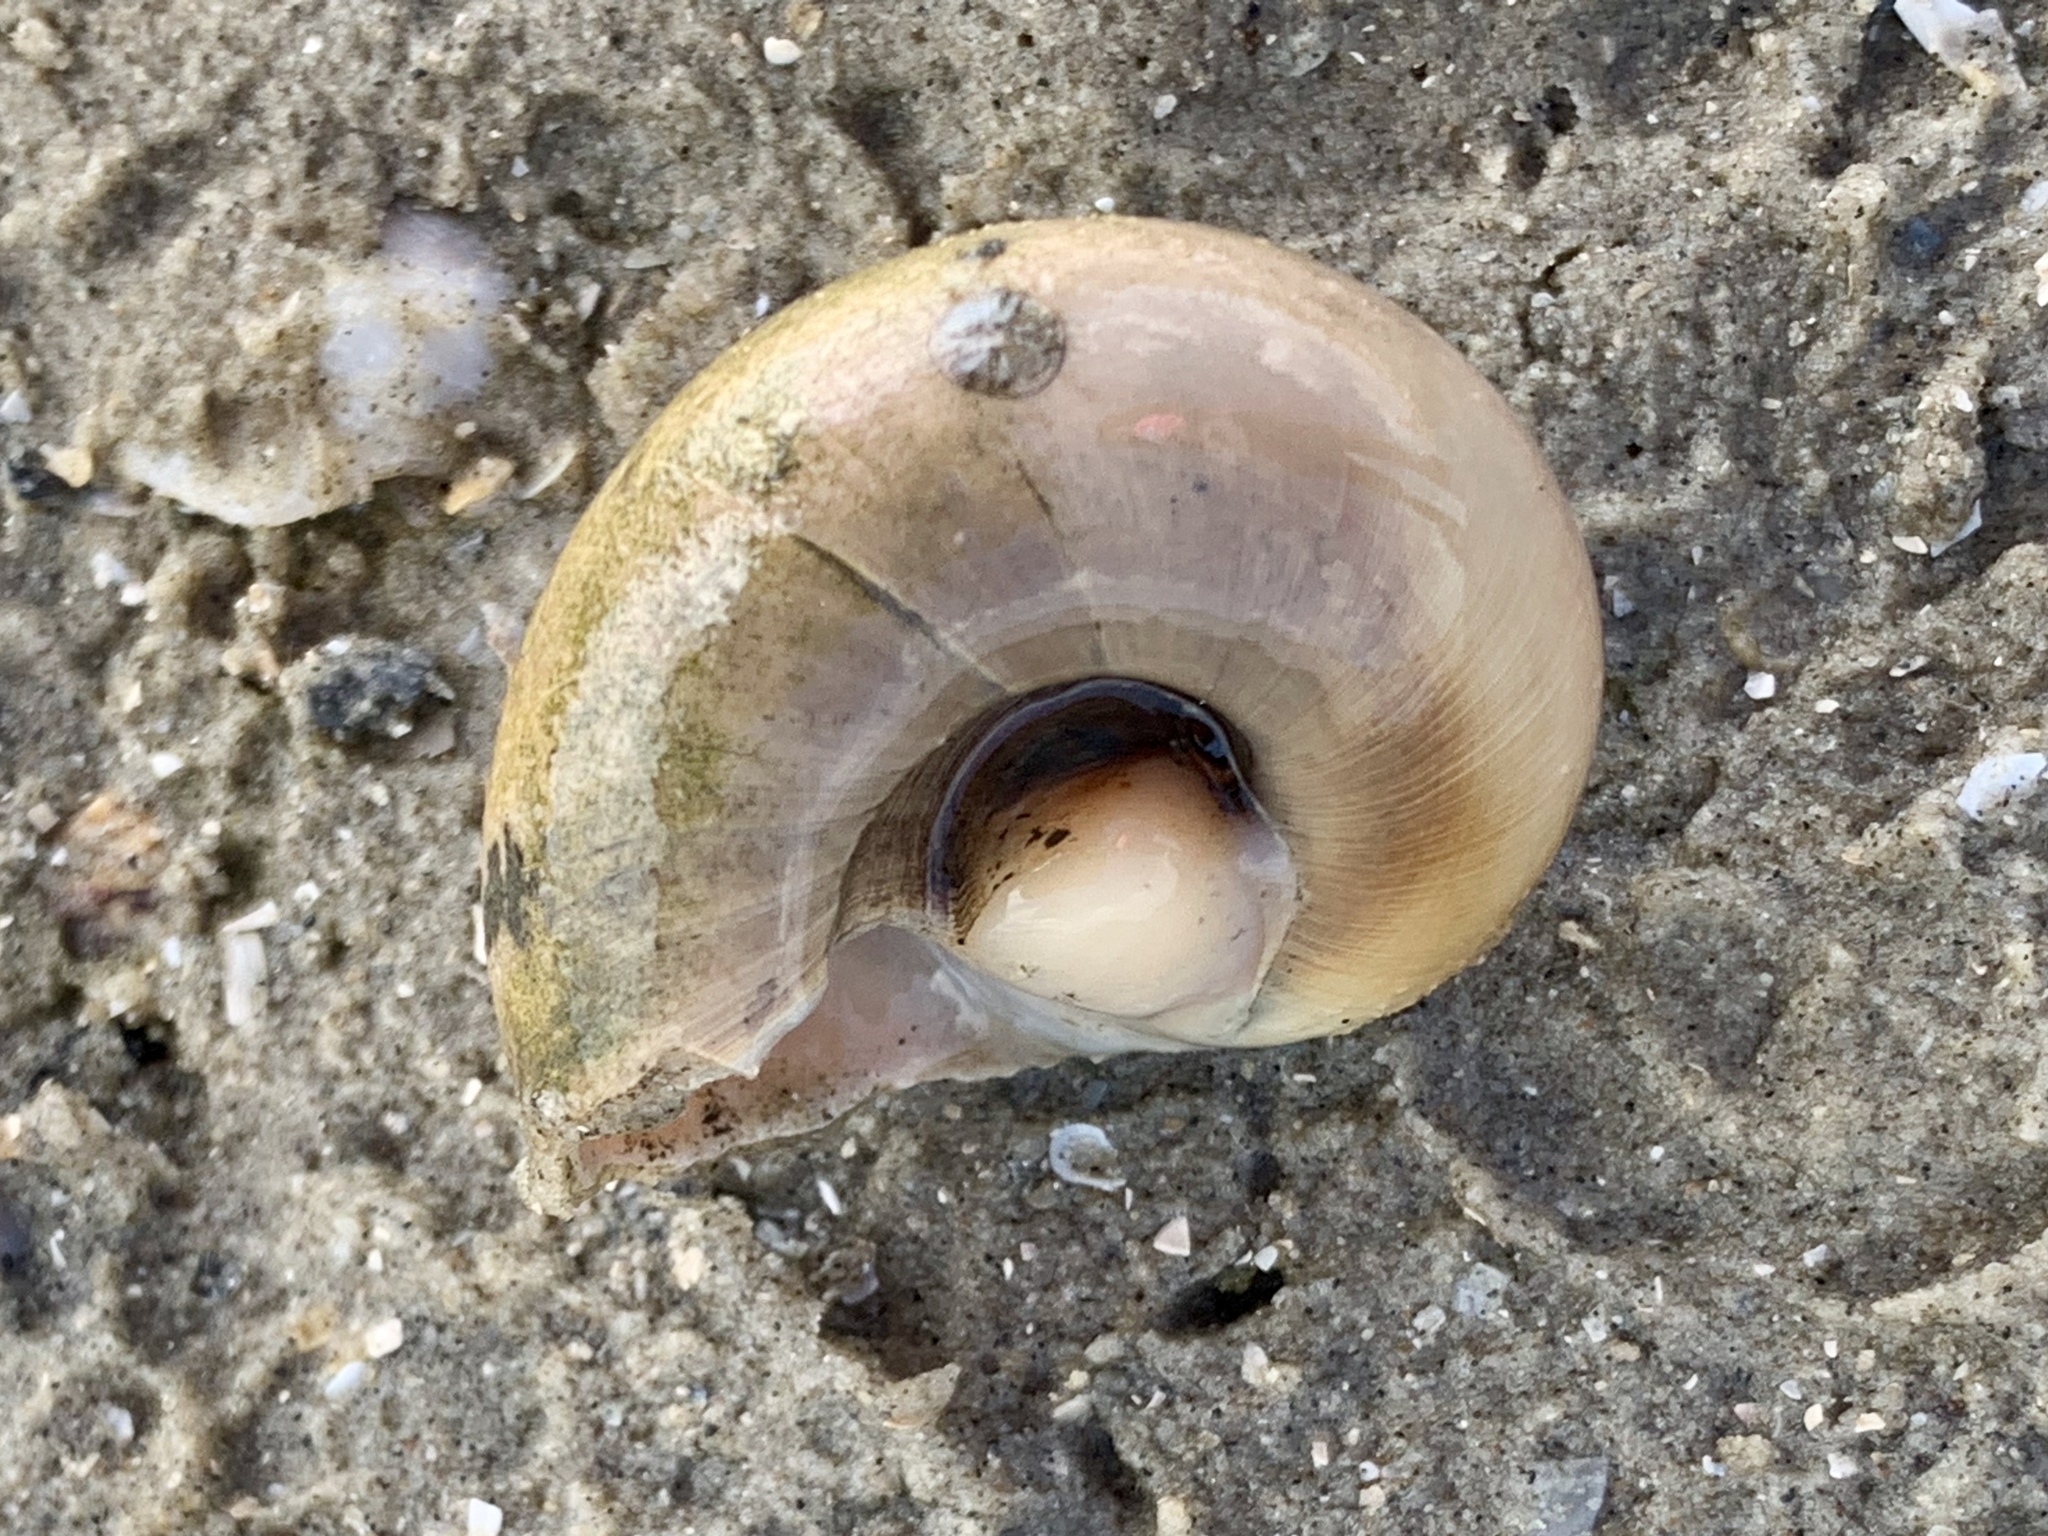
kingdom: Animalia
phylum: Mollusca
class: Gastropoda
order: Littorinimorpha
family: Naticidae
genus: Neverita
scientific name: Neverita delessertiana
